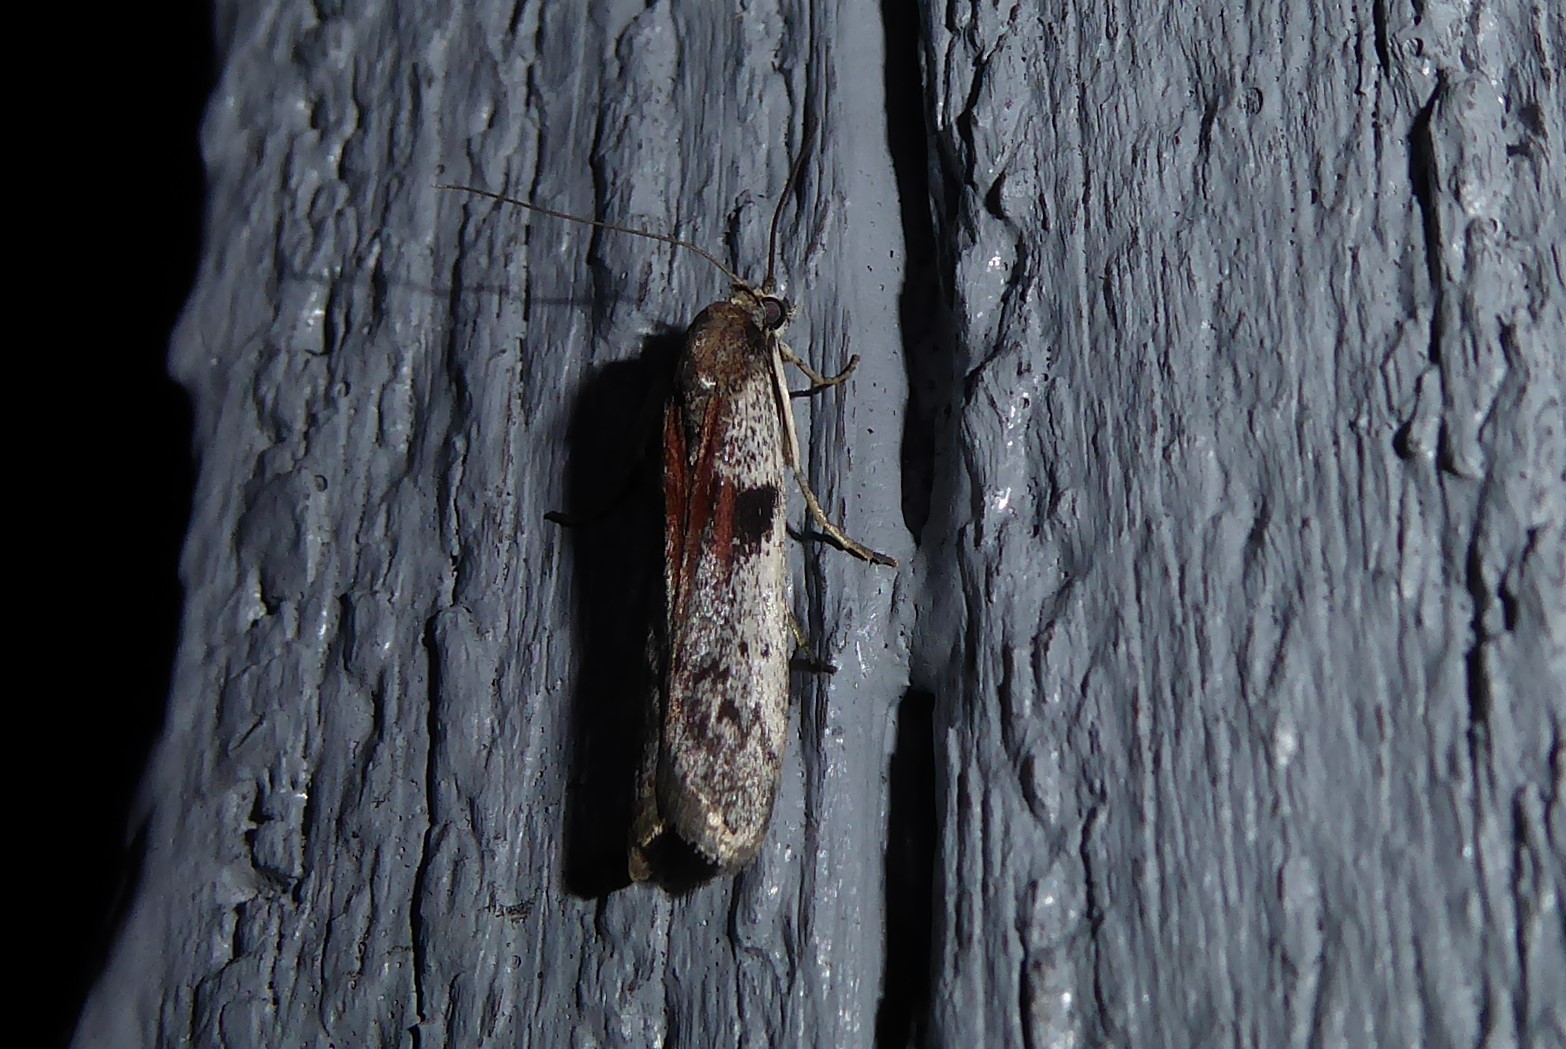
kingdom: Animalia
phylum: Arthropoda
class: Insecta
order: Lepidoptera
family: Pyralidae
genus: Patagoniodes
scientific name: Patagoniodes farinaria
